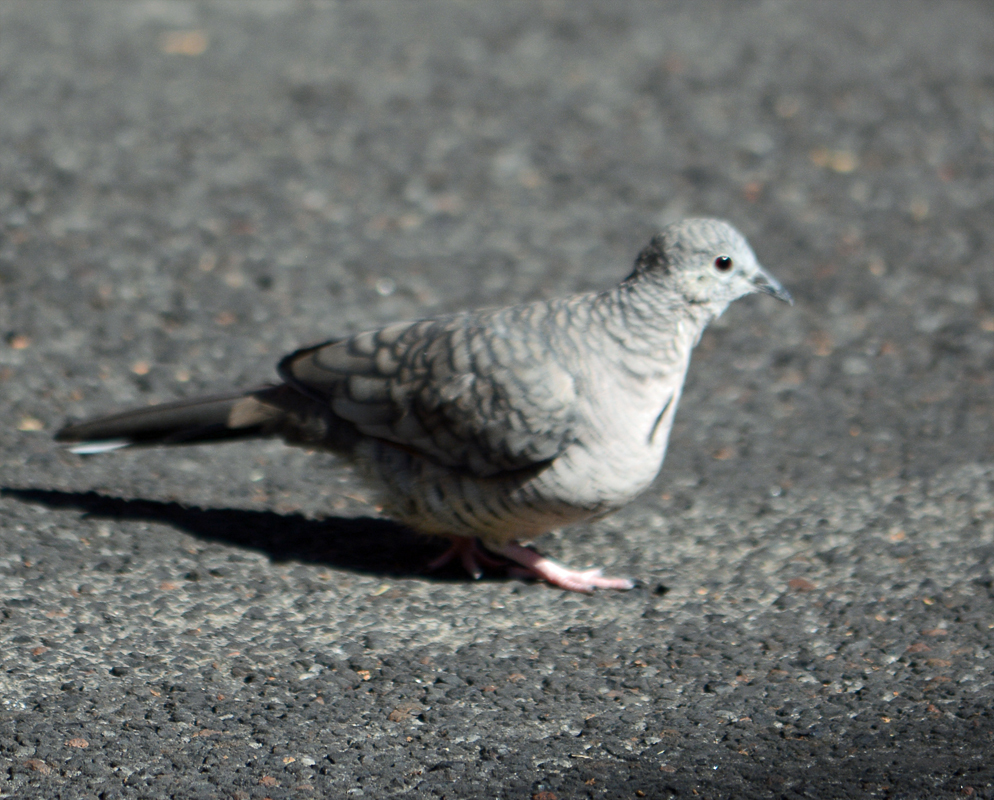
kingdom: Animalia
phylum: Chordata
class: Aves
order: Columbiformes
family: Columbidae
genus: Columbina
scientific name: Columbina inca
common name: Inca dove
